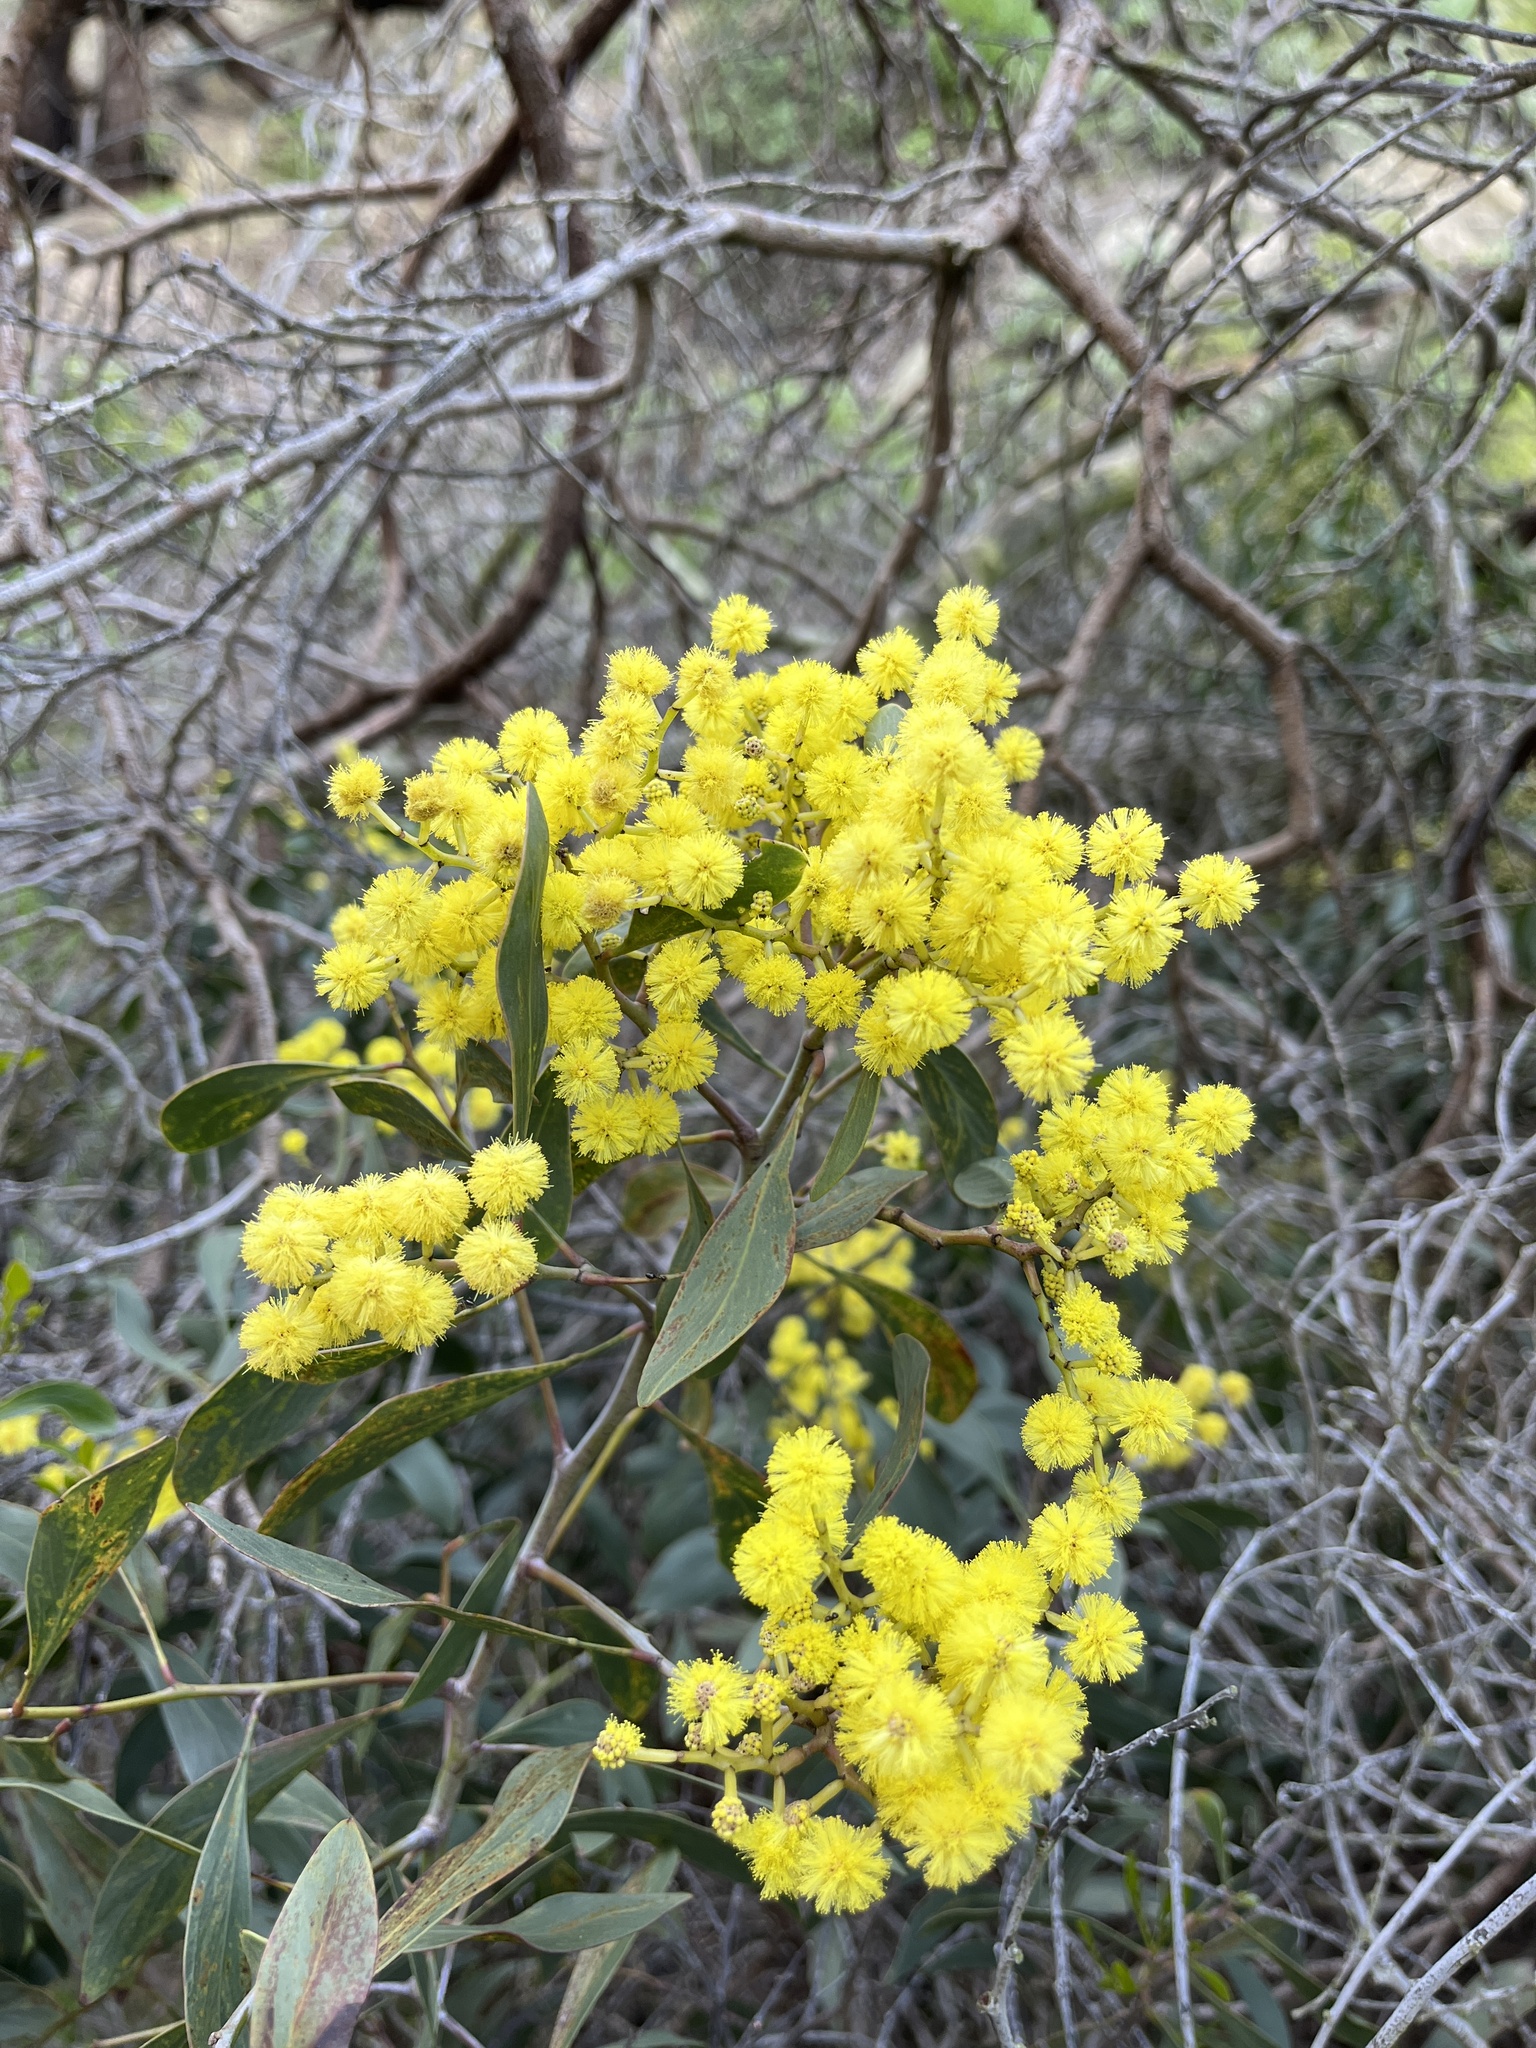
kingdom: Plantae
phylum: Tracheophyta
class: Magnoliopsida
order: Fabales
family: Fabaceae
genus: Acacia
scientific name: Acacia pycnantha
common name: Golden wattle
